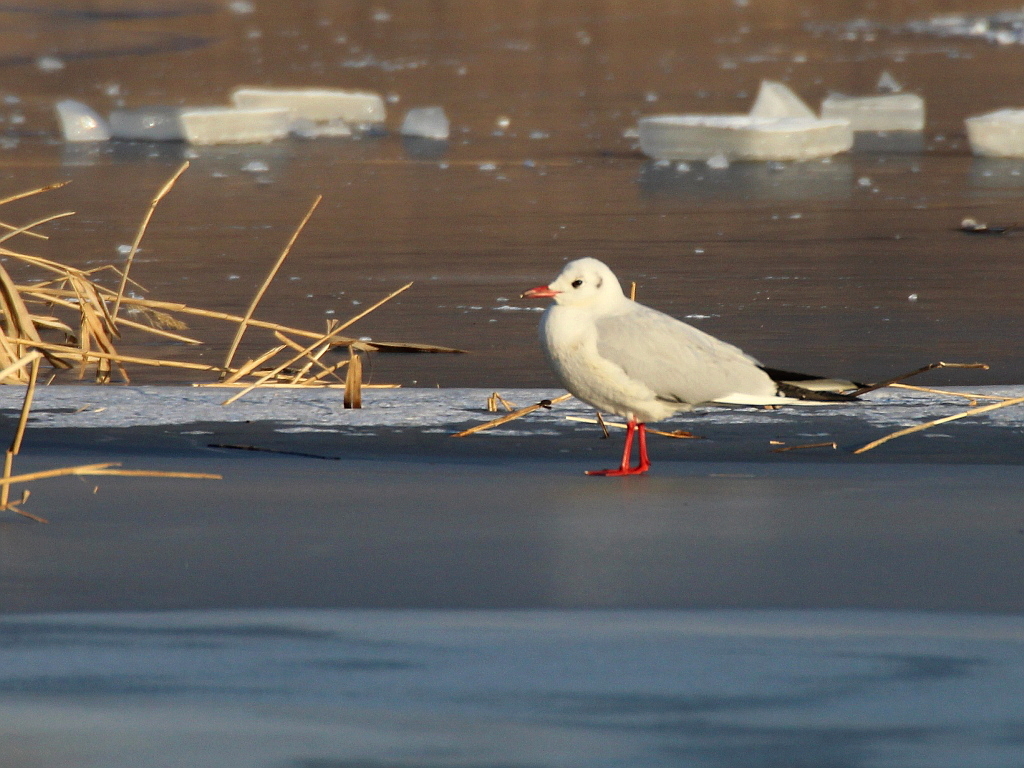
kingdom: Animalia
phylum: Chordata
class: Aves
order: Charadriiformes
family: Laridae
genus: Chroicocephalus
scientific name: Chroicocephalus ridibundus
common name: Black-headed gull
